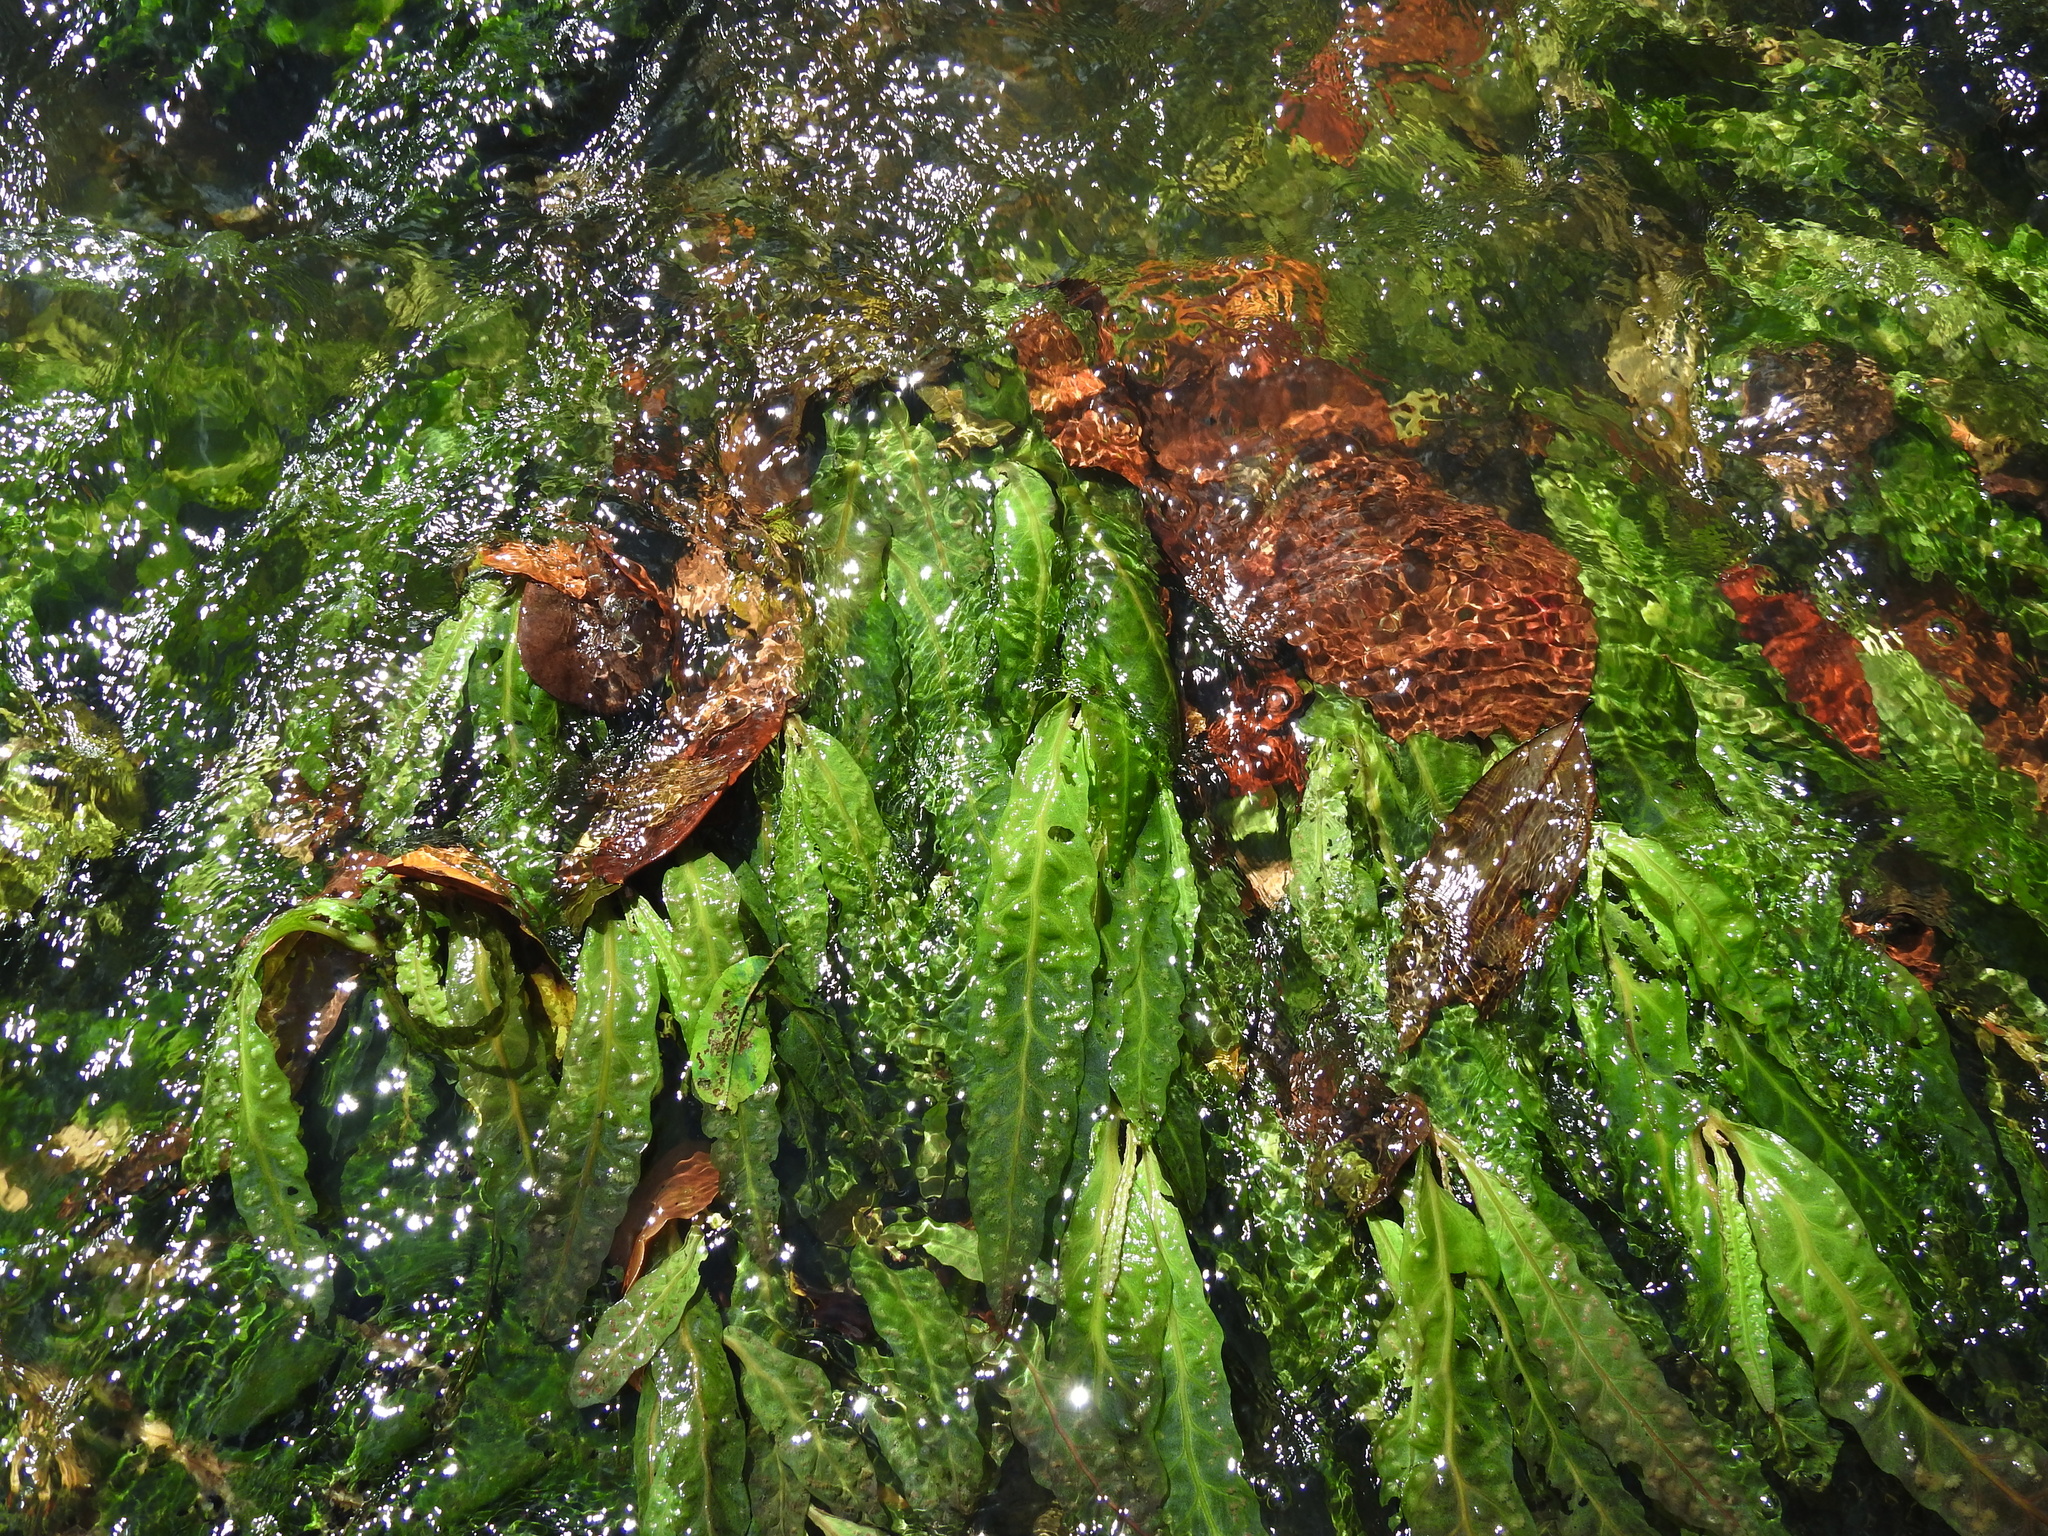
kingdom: Plantae
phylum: Tracheophyta
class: Magnoliopsida
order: Malpighiales
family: Podostemaceae
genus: Apinagia
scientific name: Apinagia longifolia
